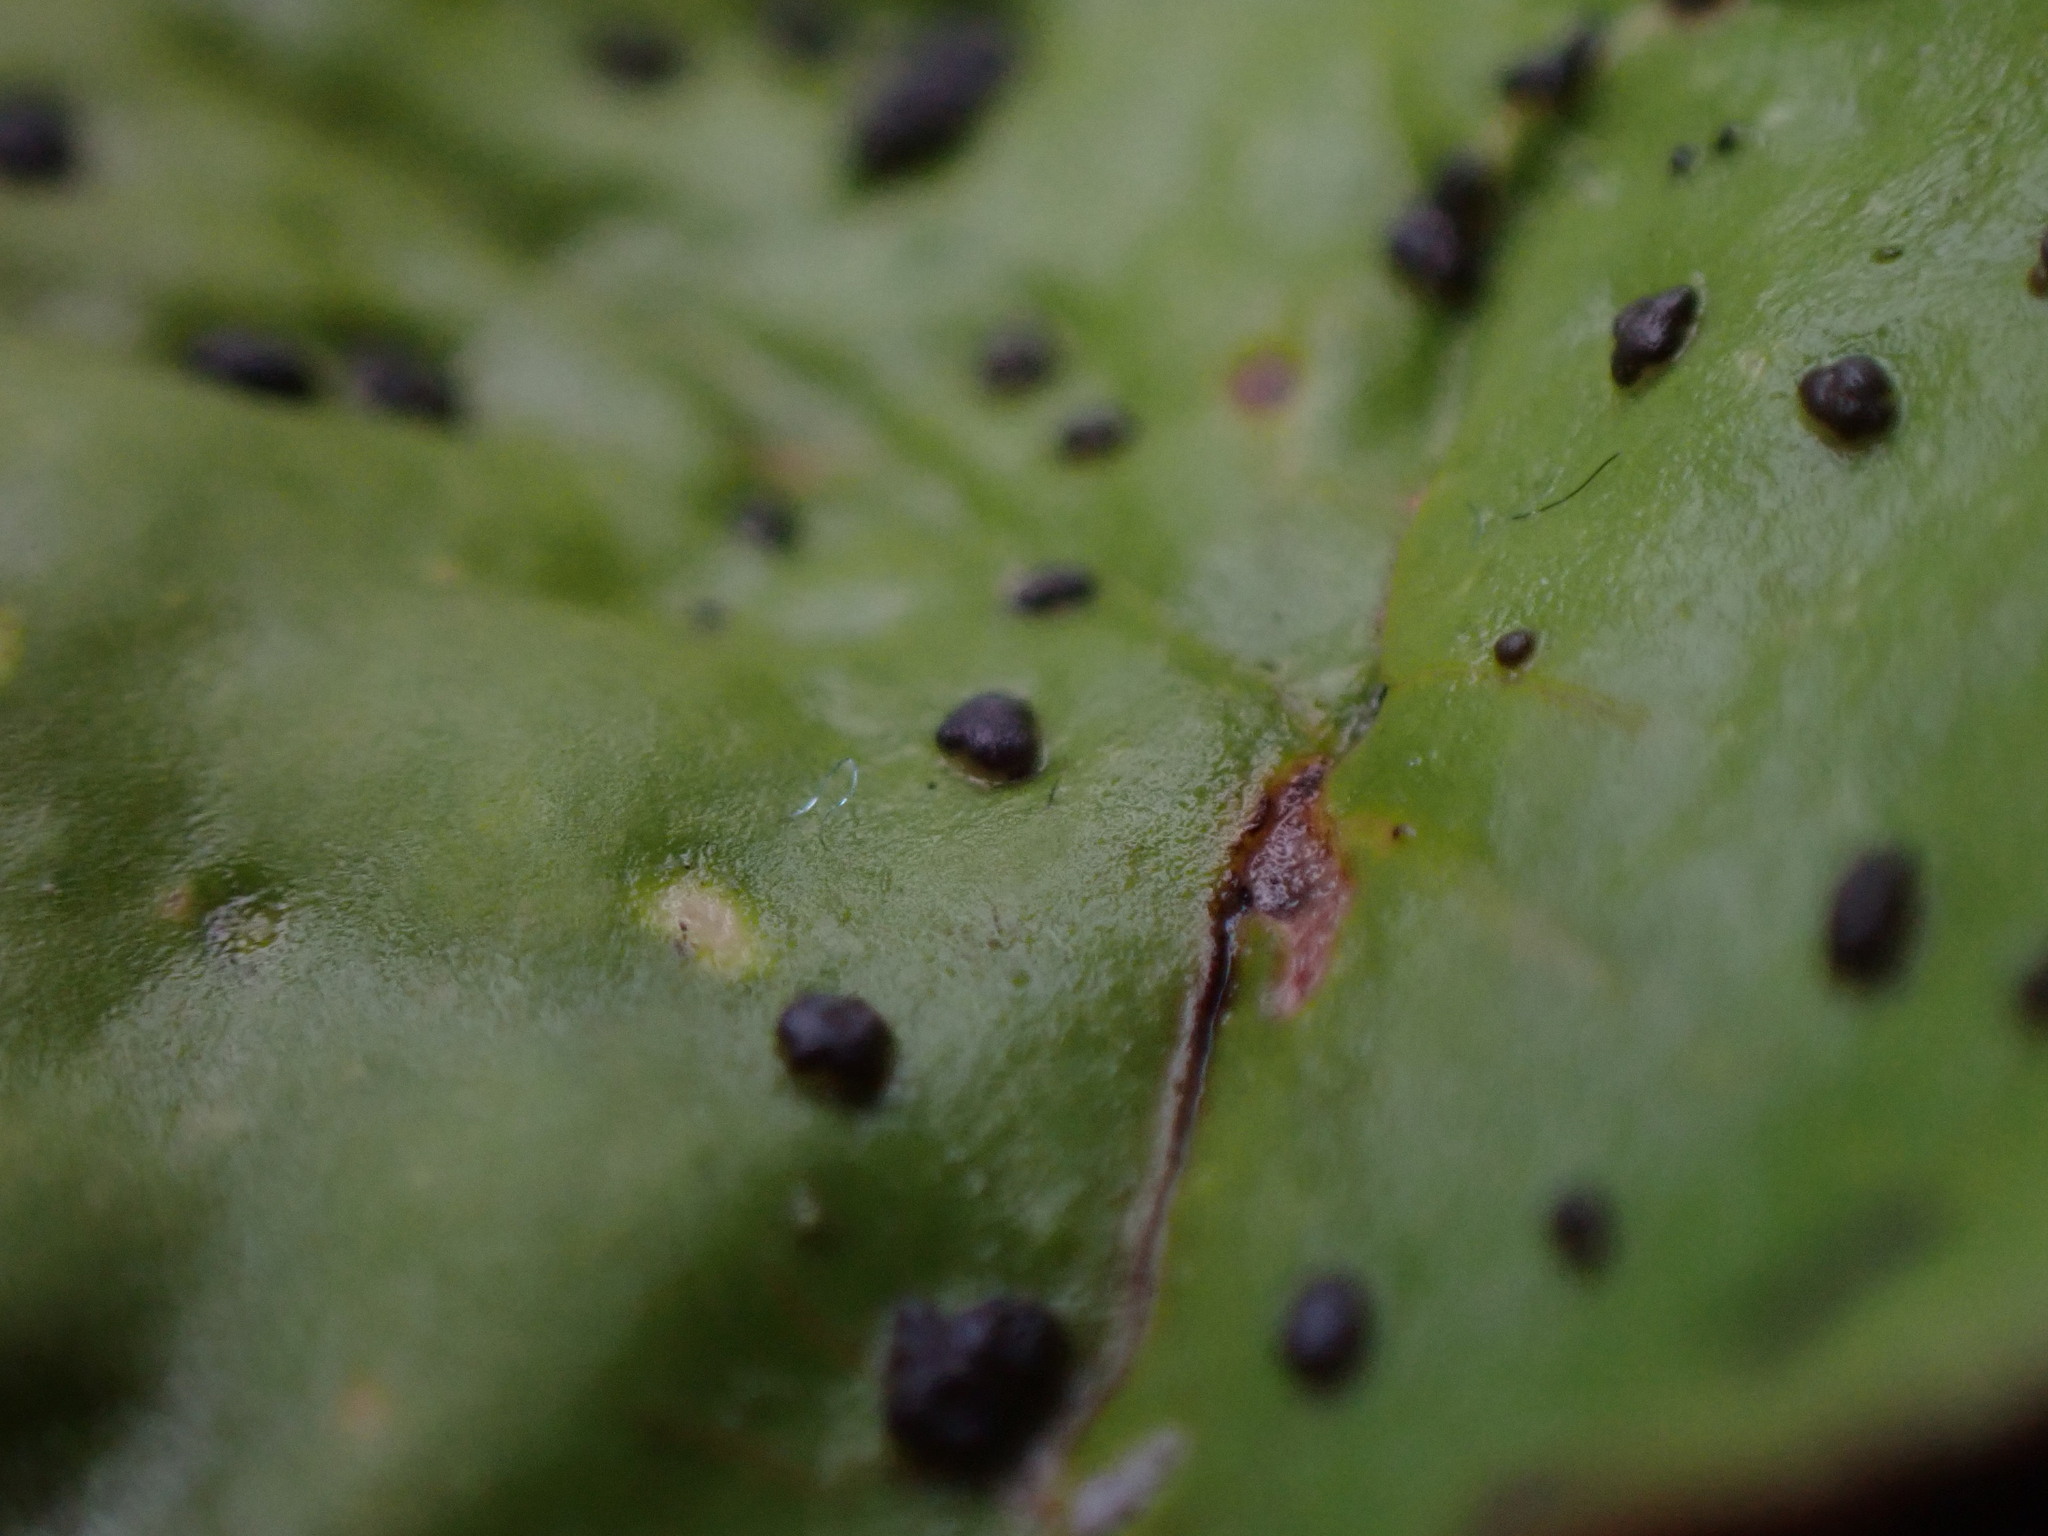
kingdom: Fungi
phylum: Ascomycota
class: Lecanoromycetes
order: Peltigerales
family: Peltigeraceae
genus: Peltigera
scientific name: Peltigera britannica
